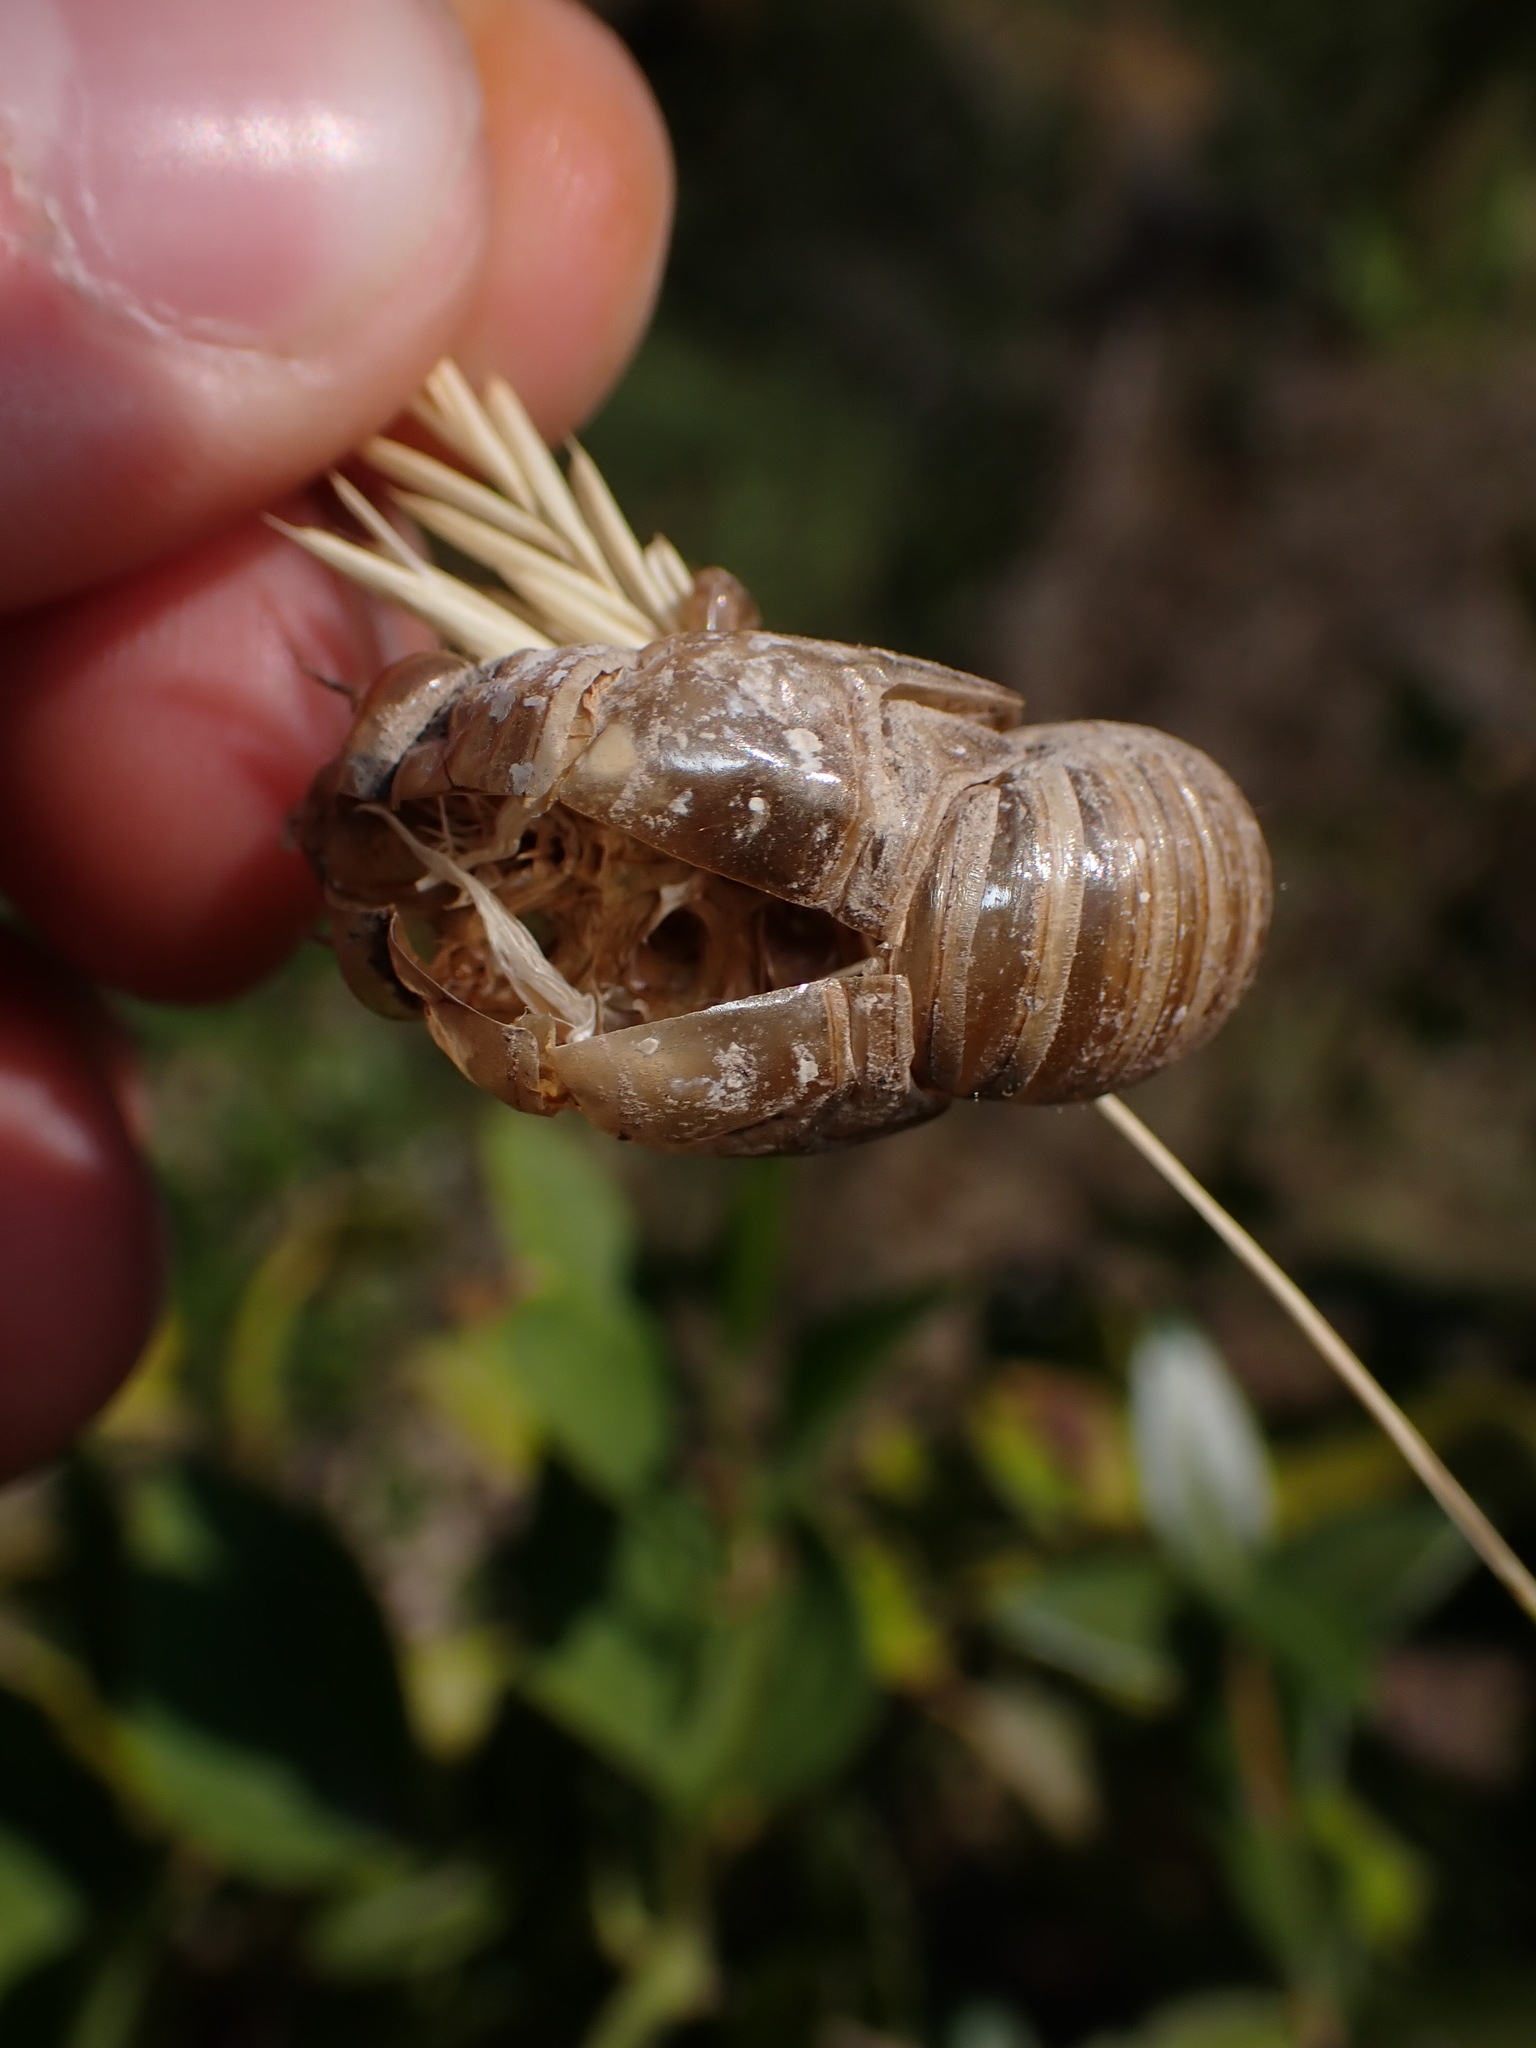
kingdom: Animalia
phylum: Arthropoda
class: Insecta
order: Hemiptera
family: Cicadidae
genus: Lyristes
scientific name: Lyristes plebejus
